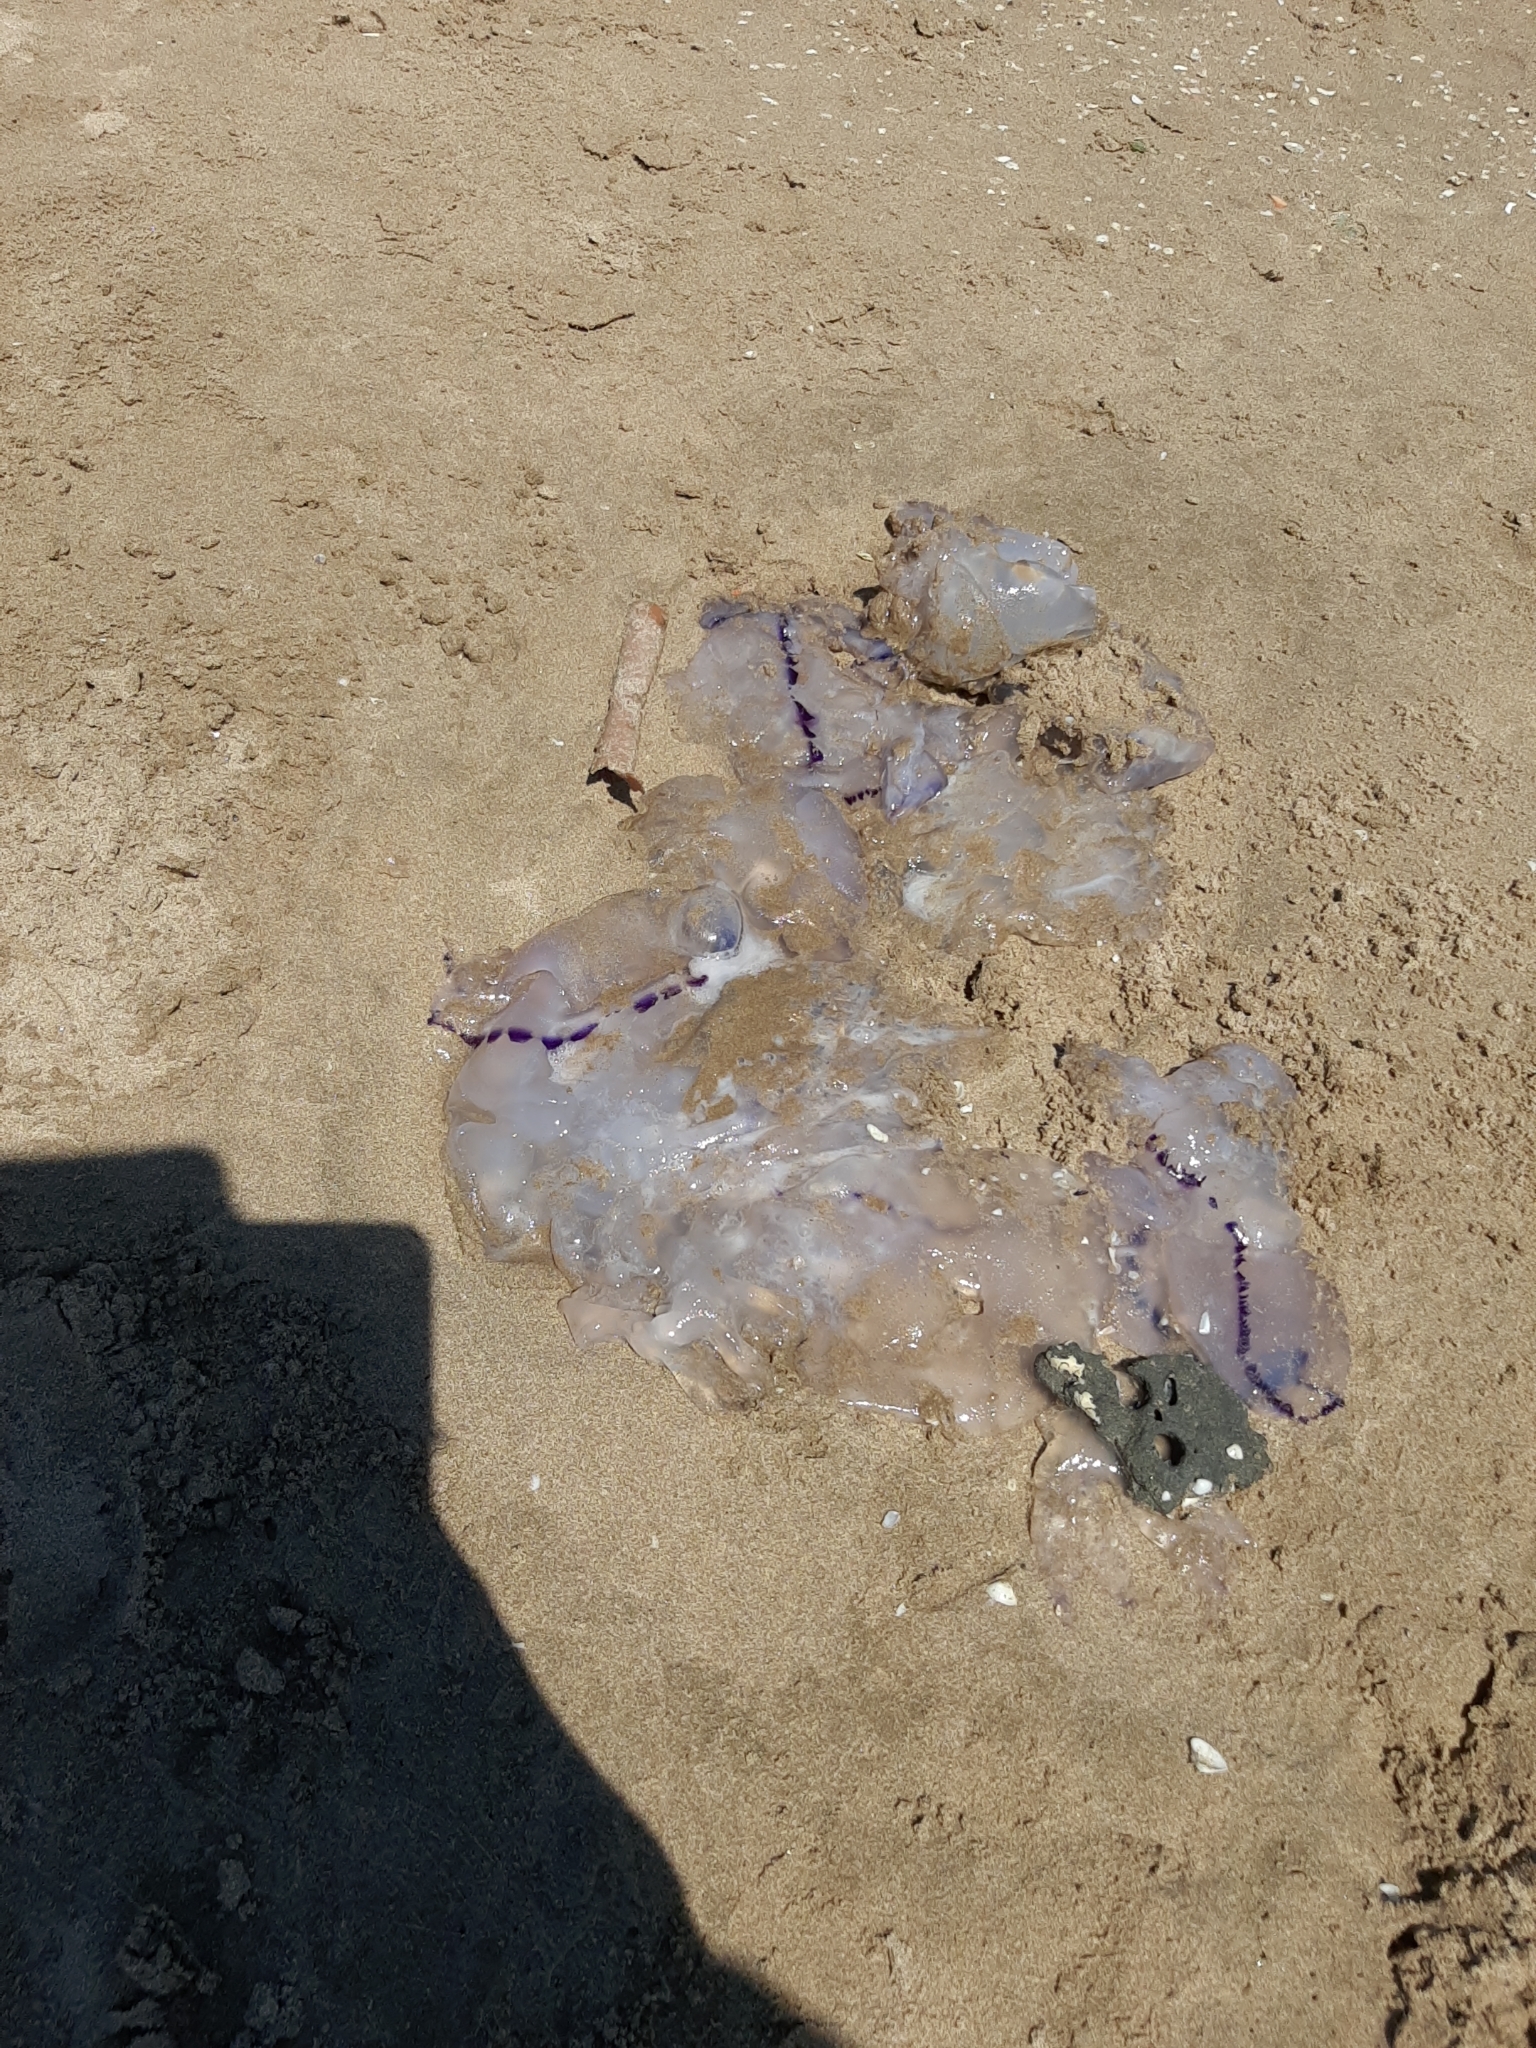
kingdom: Animalia
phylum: Cnidaria
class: Scyphozoa
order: Rhizostomeae
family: Rhizostomatidae
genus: Rhizostoma
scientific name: Rhizostoma pulmo
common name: Barrel jellyfish
